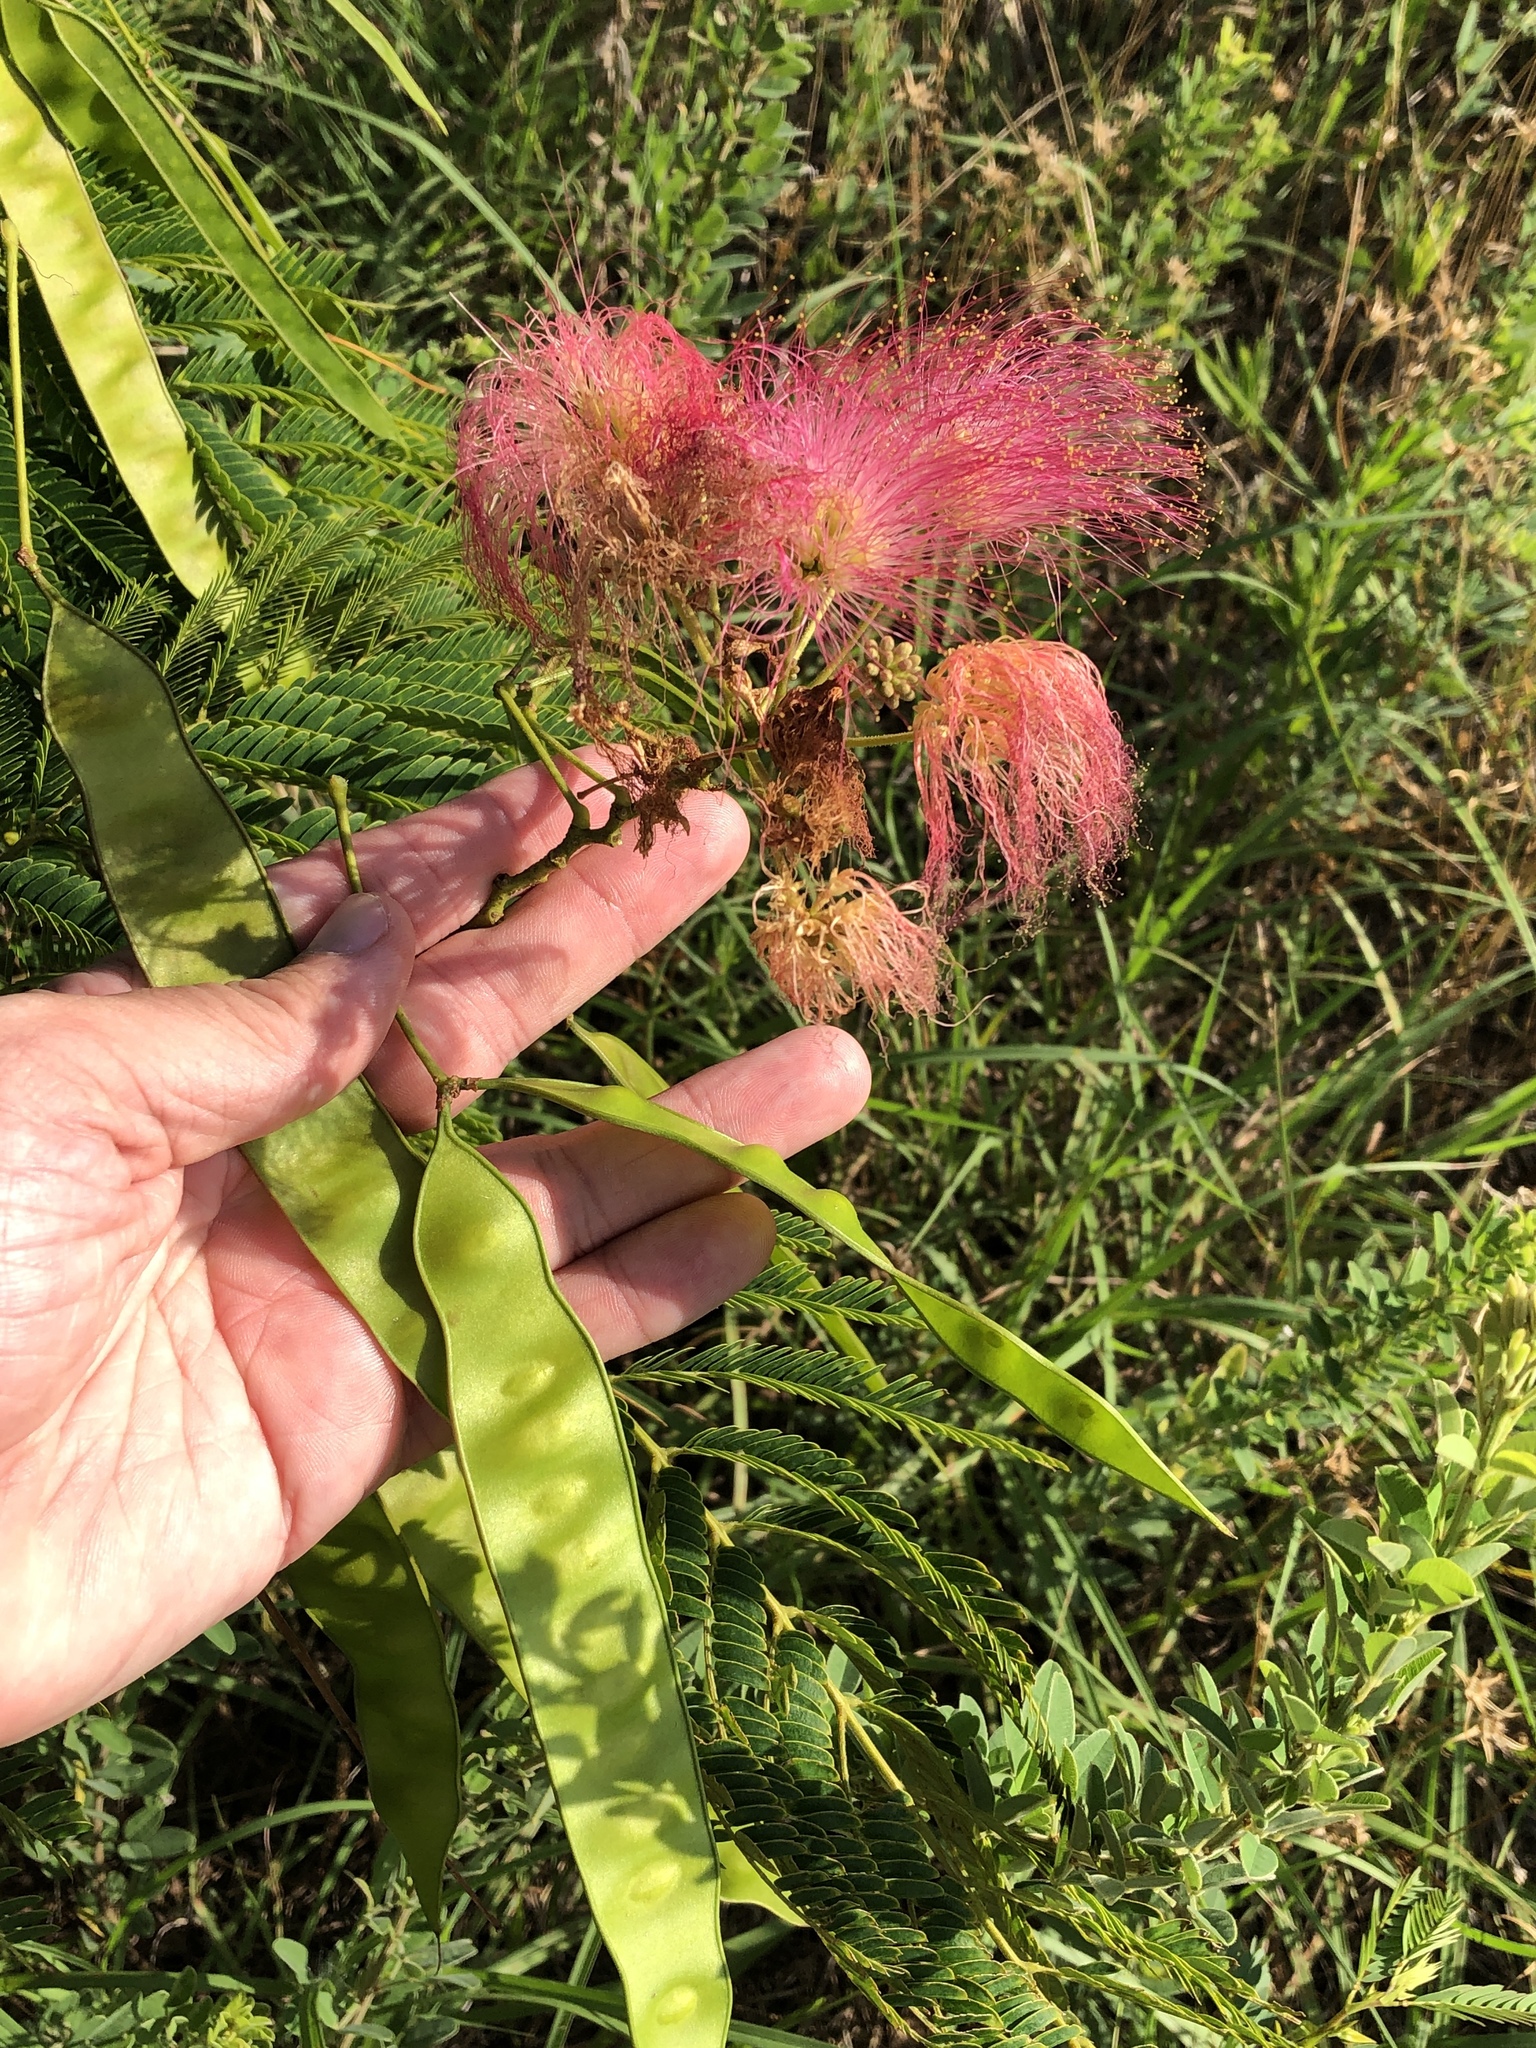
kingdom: Plantae
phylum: Tracheophyta
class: Magnoliopsida
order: Fabales
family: Fabaceae
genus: Albizia
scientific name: Albizia julibrissin
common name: Silktree
